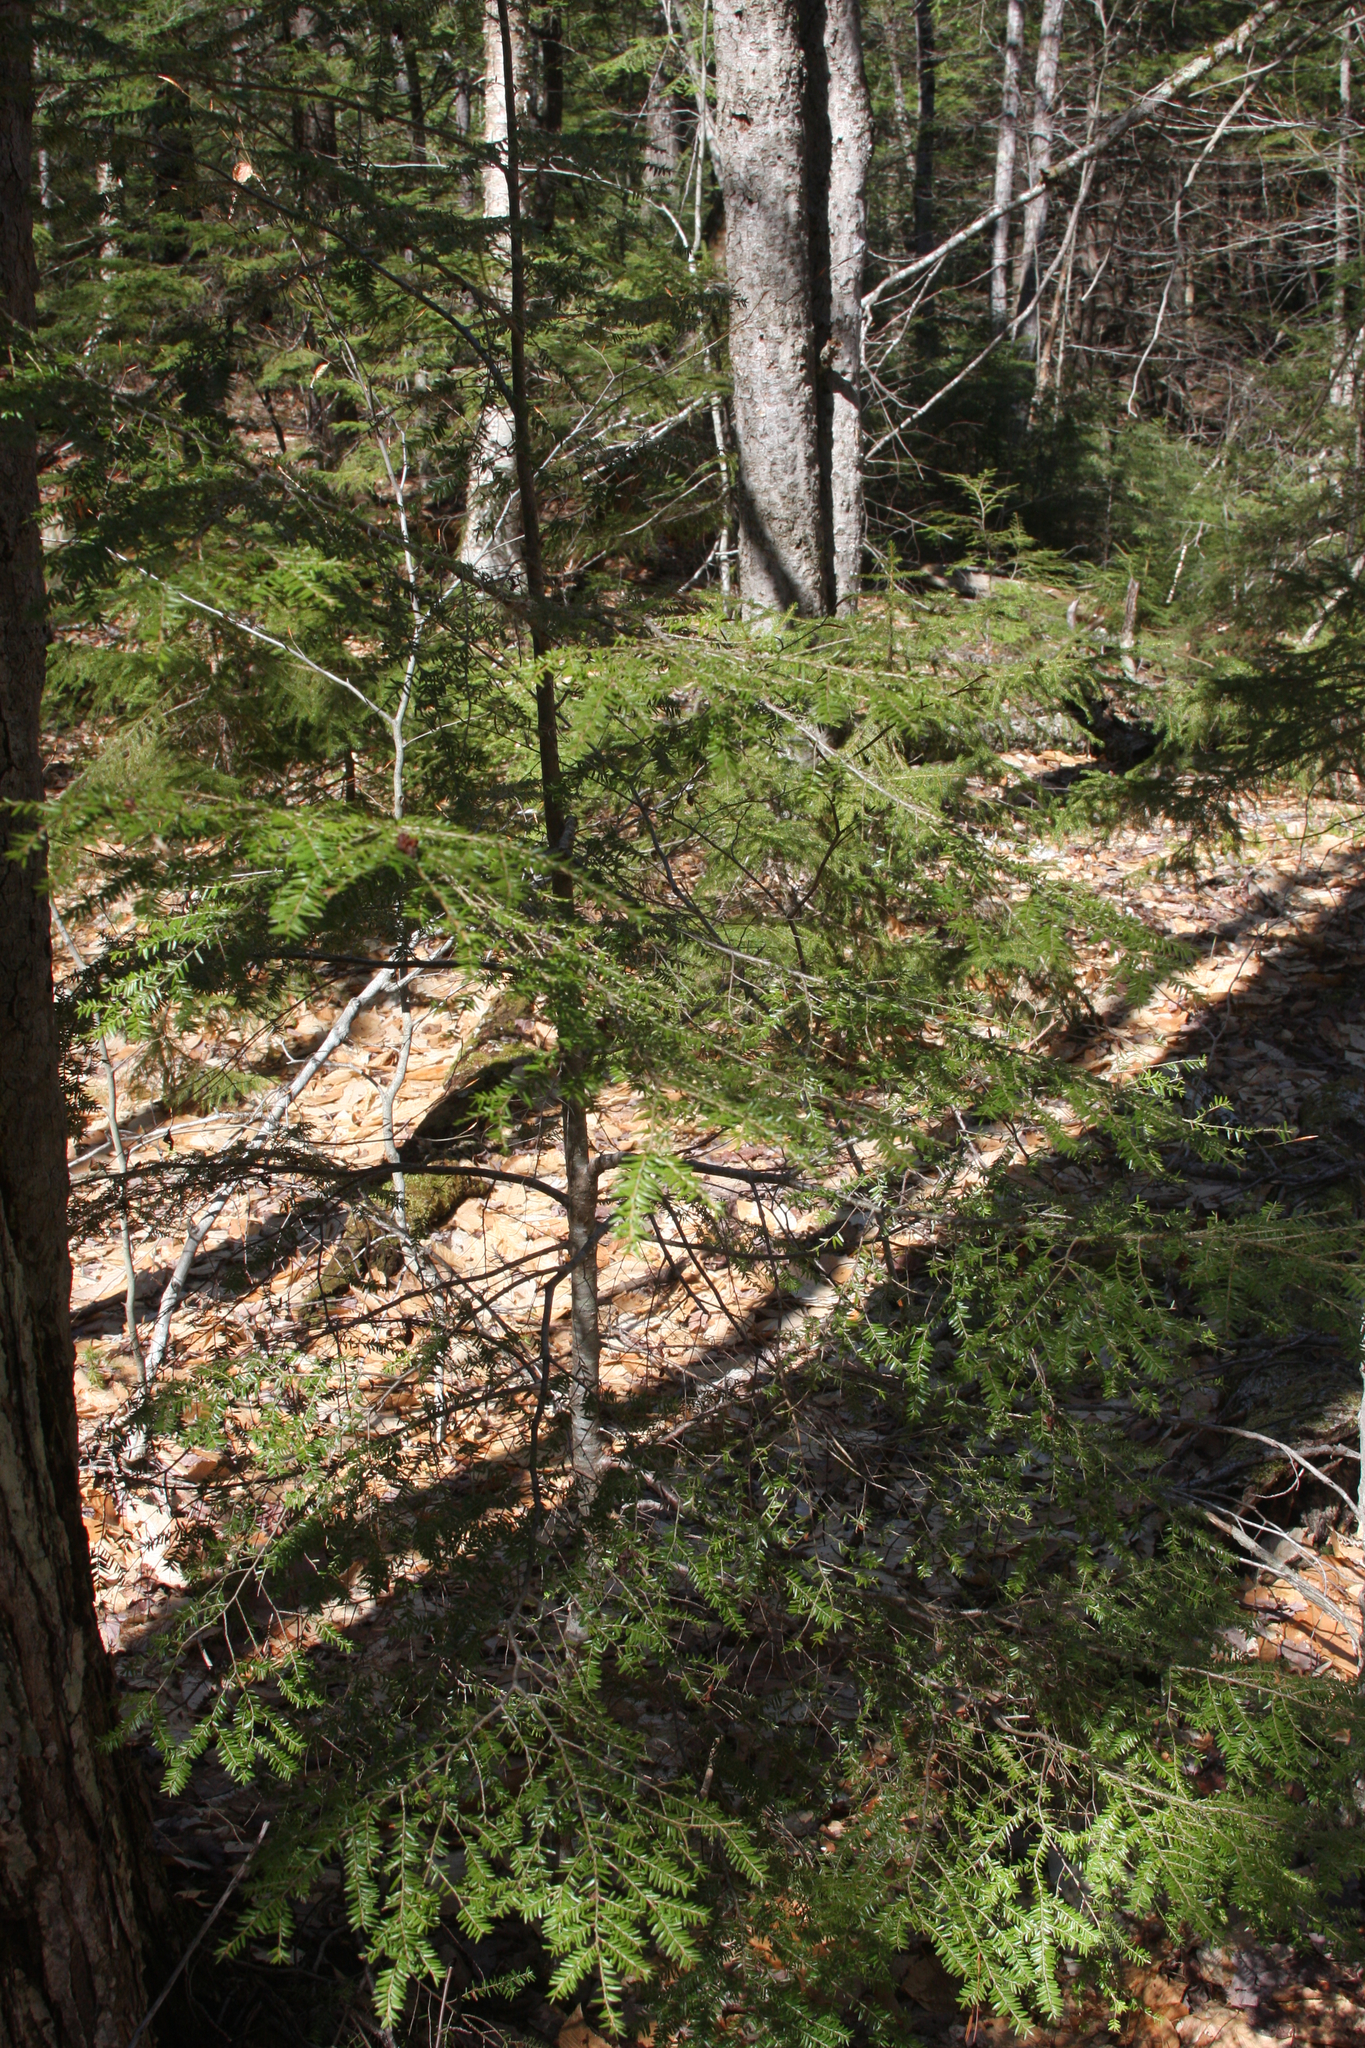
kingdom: Plantae
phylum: Tracheophyta
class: Pinopsida
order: Pinales
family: Pinaceae
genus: Tsuga
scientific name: Tsuga canadensis
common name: Eastern hemlock
